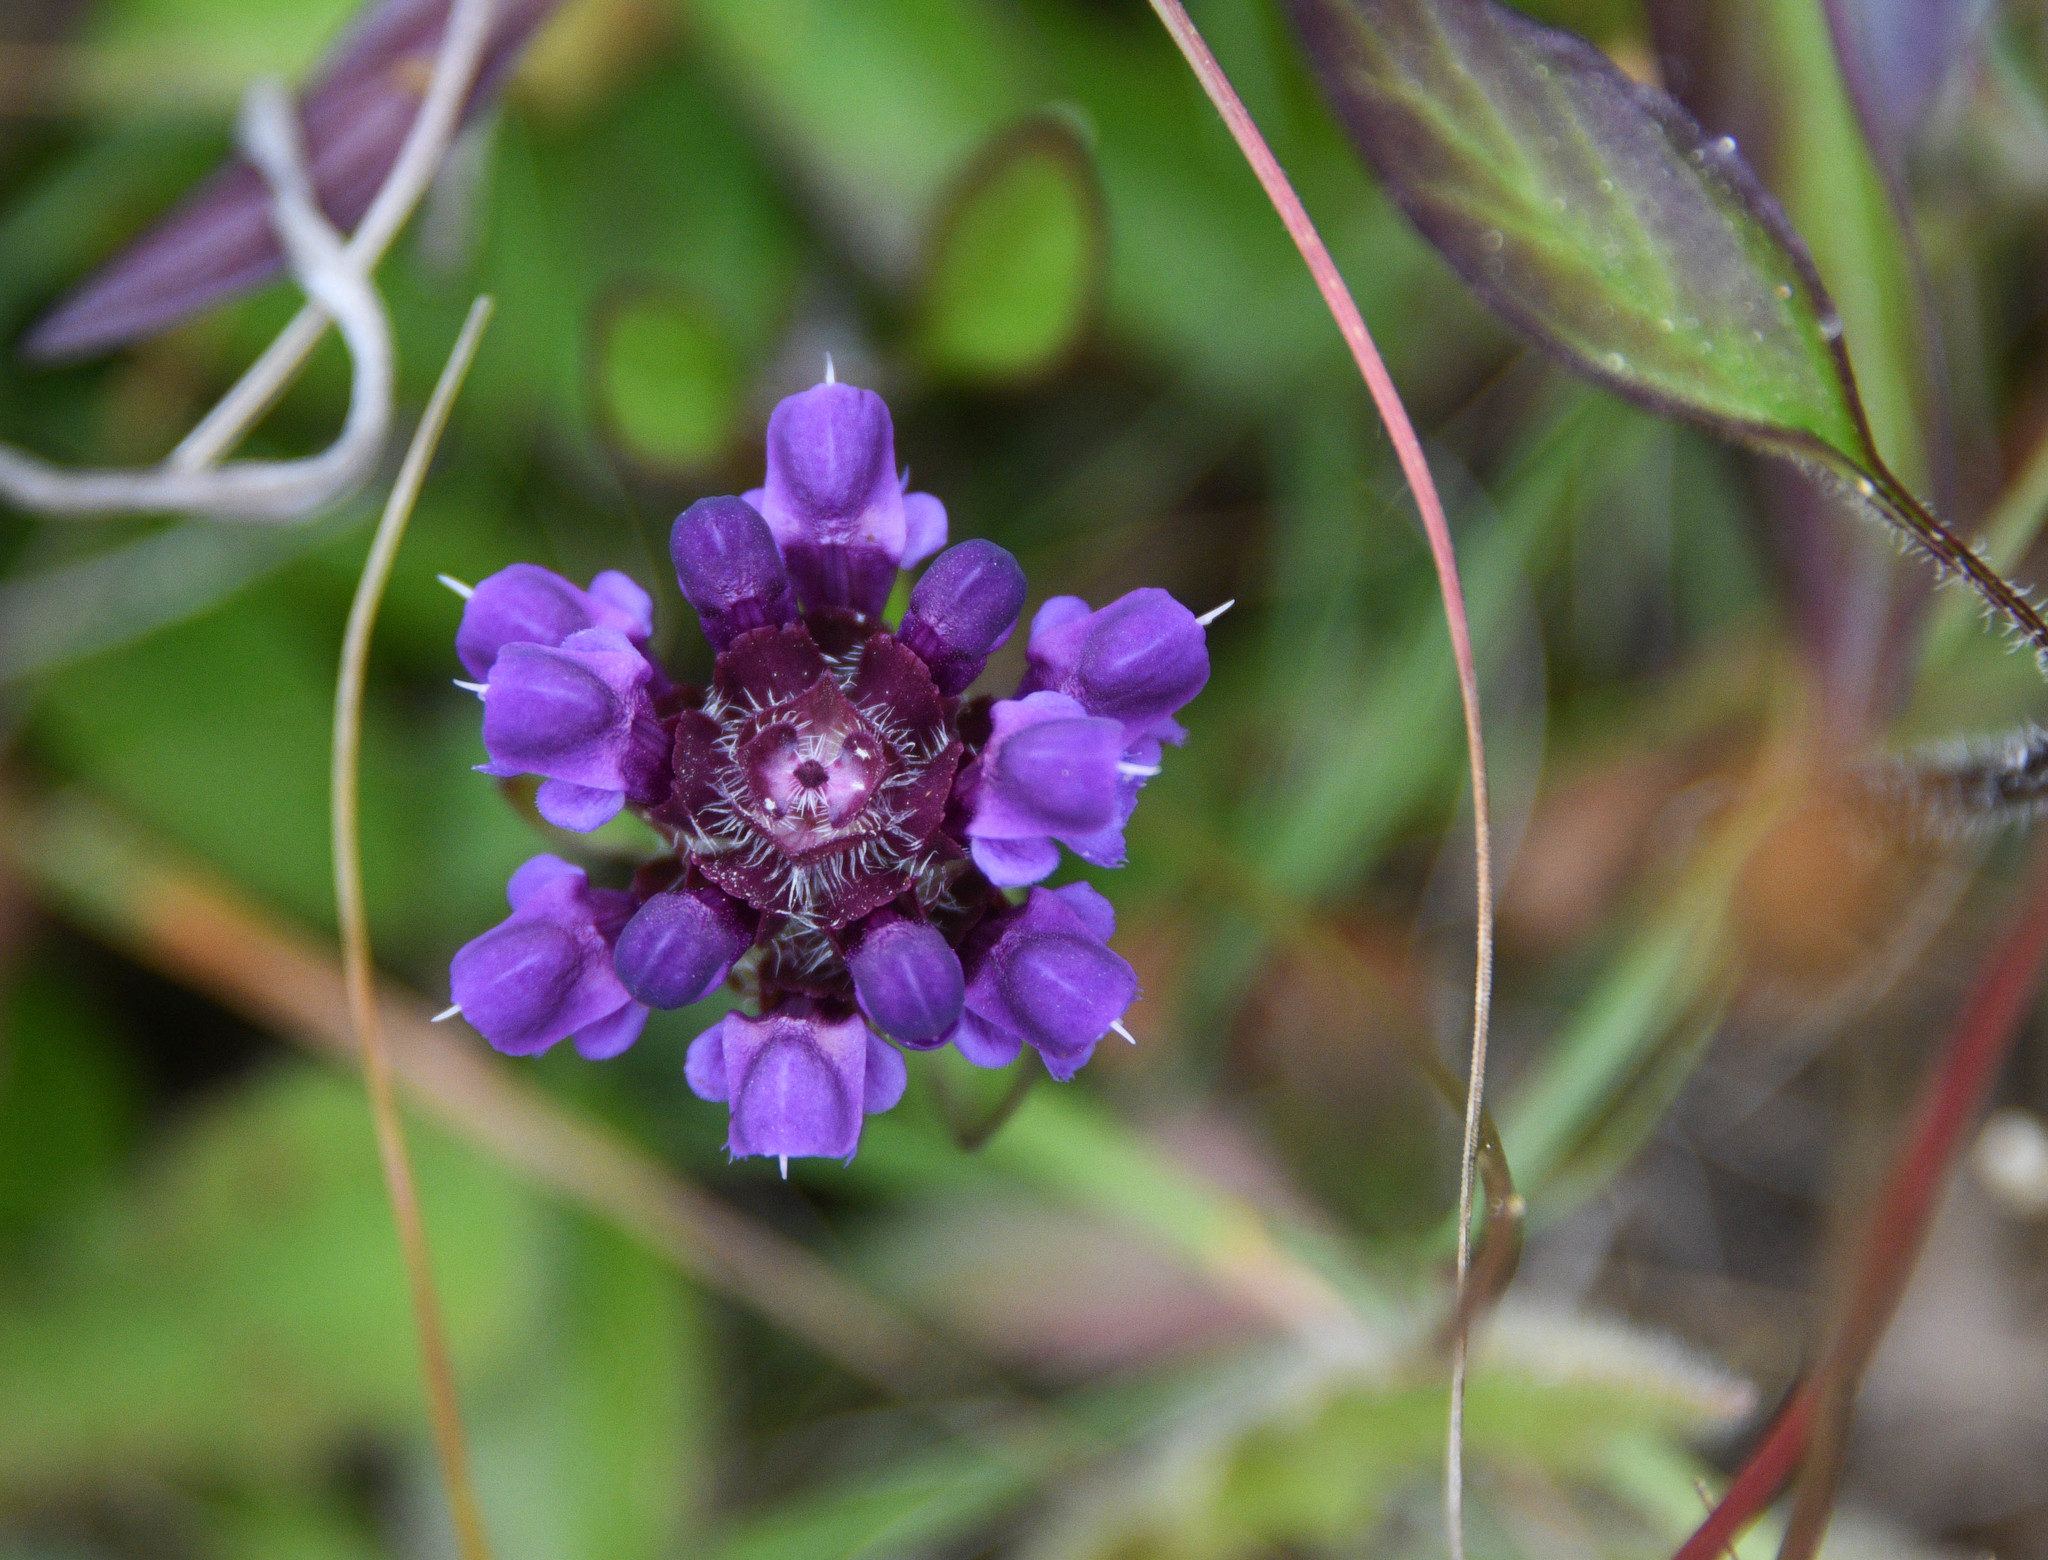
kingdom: Plantae
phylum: Tracheophyta
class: Magnoliopsida
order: Lamiales
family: Lamiaceae
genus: Prunella
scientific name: Prunella vulgaris
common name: Heal-all
